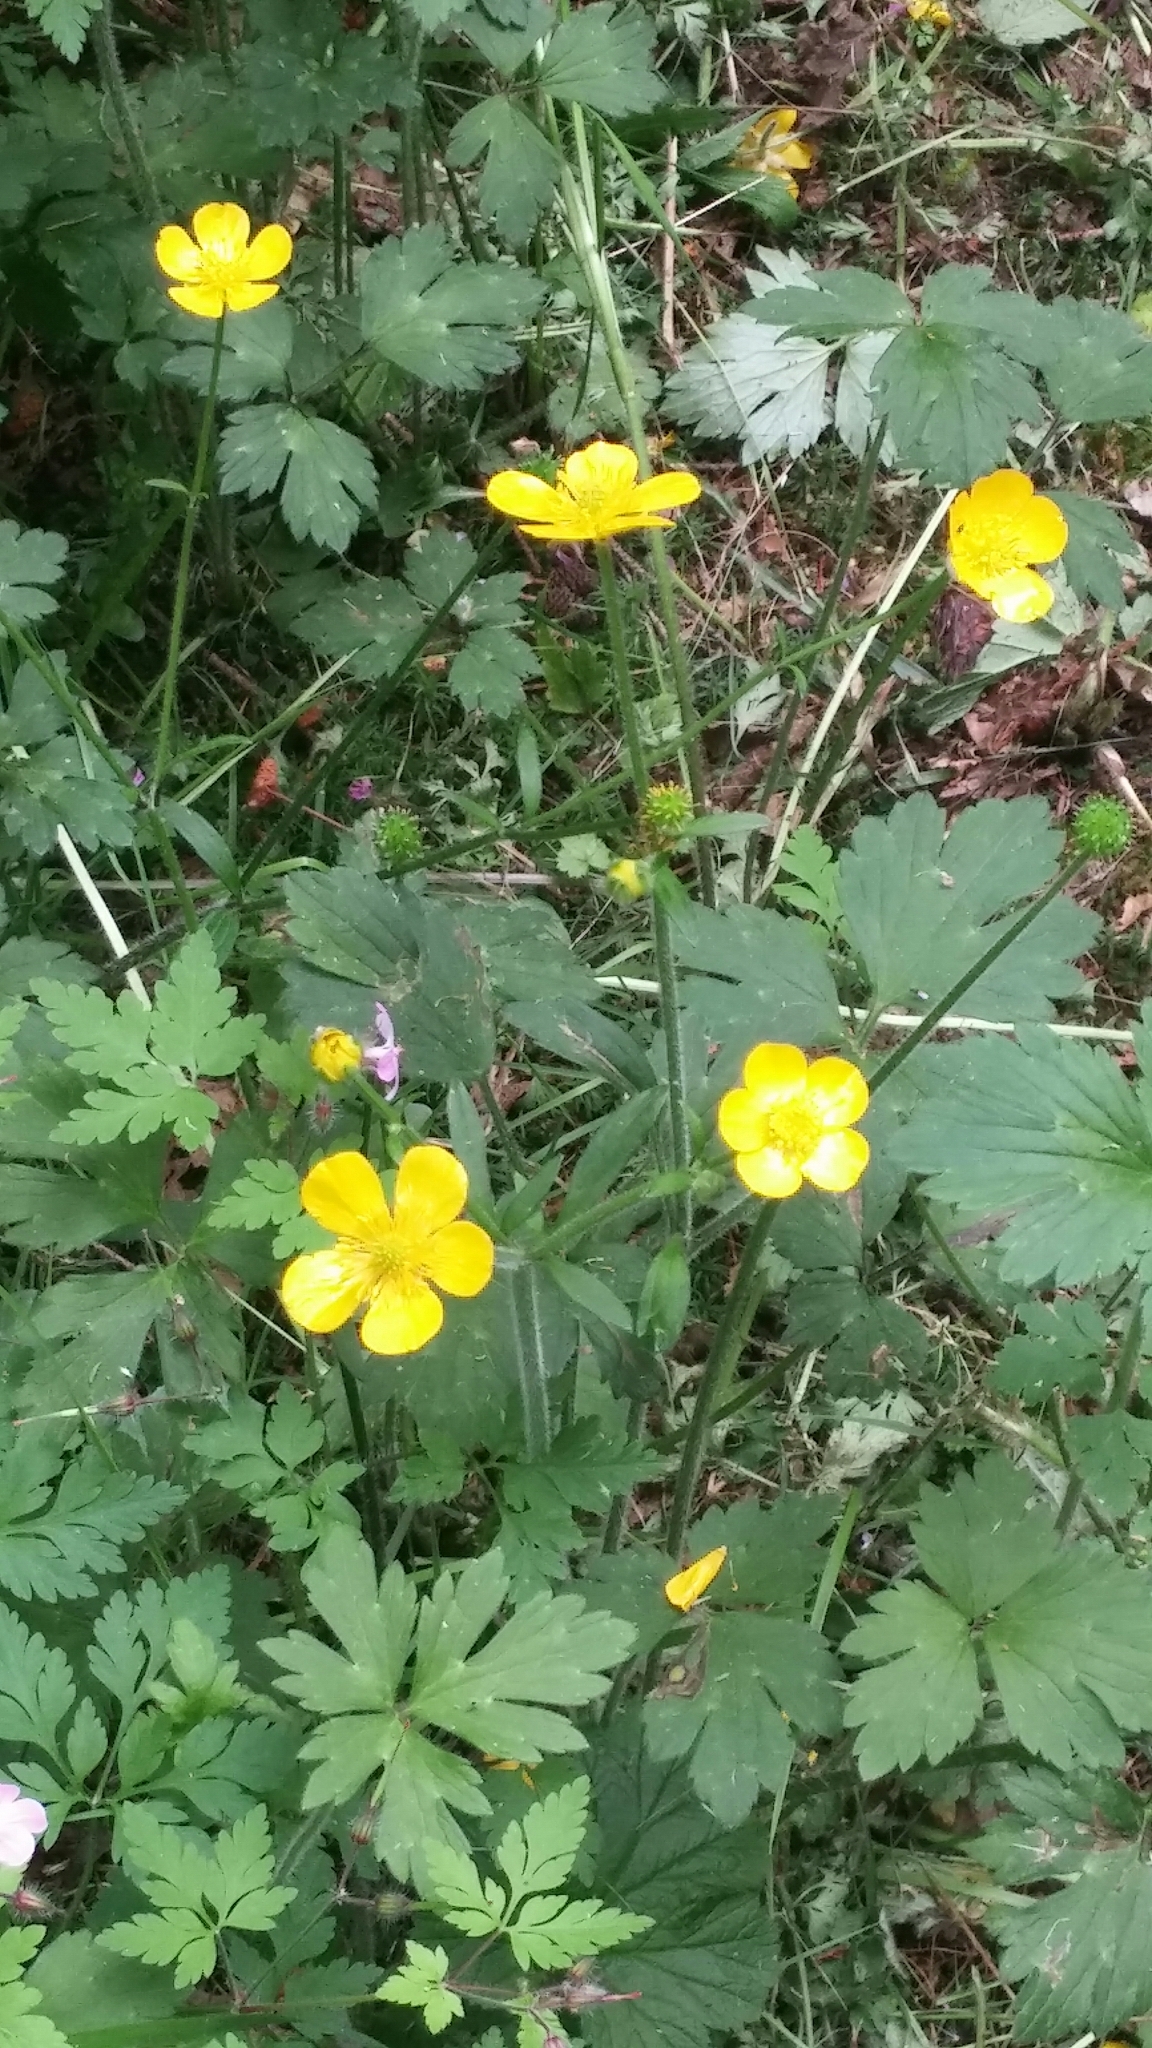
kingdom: Plantae
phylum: Tracheophyta
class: Magnoliopsida
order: Ranunculales
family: Ranunculaceae
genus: Ranunculus
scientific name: Ranunculus repens
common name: Creeping buttercup
